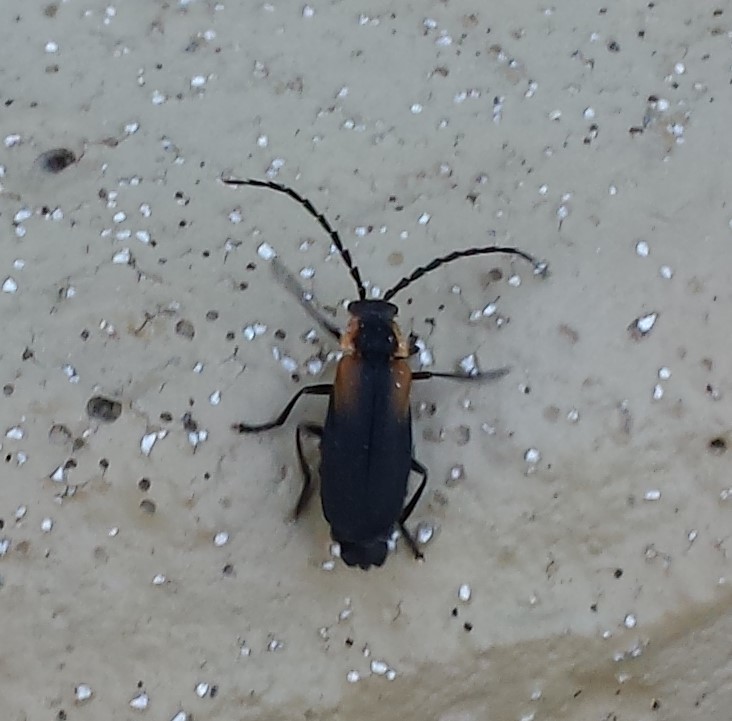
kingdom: Animalia
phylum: Arthropoda
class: Insecta
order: Coleoptera
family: Cantharidae
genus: Polemius
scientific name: Polemius laticornis
